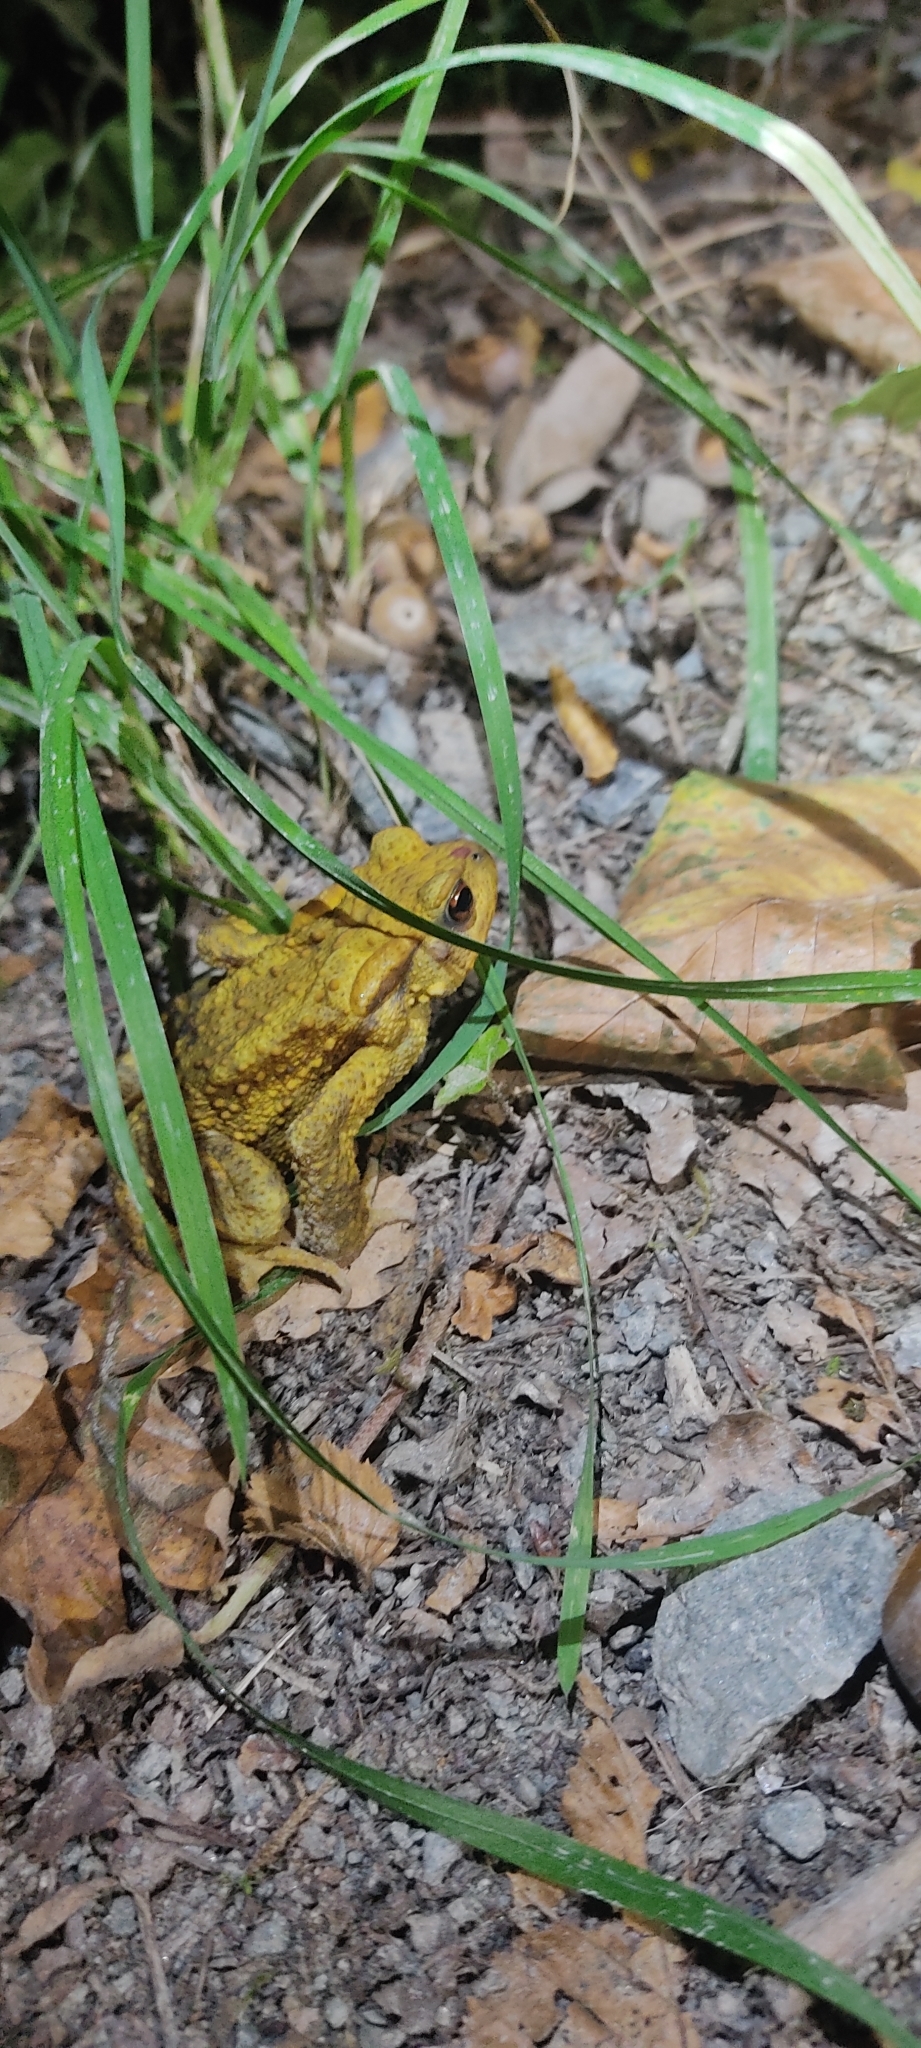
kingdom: Animalia
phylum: Chordata
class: Amphibia
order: Anura
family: Bufonidae
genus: Bufo
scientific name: Bufo spinosus
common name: Western common toad
